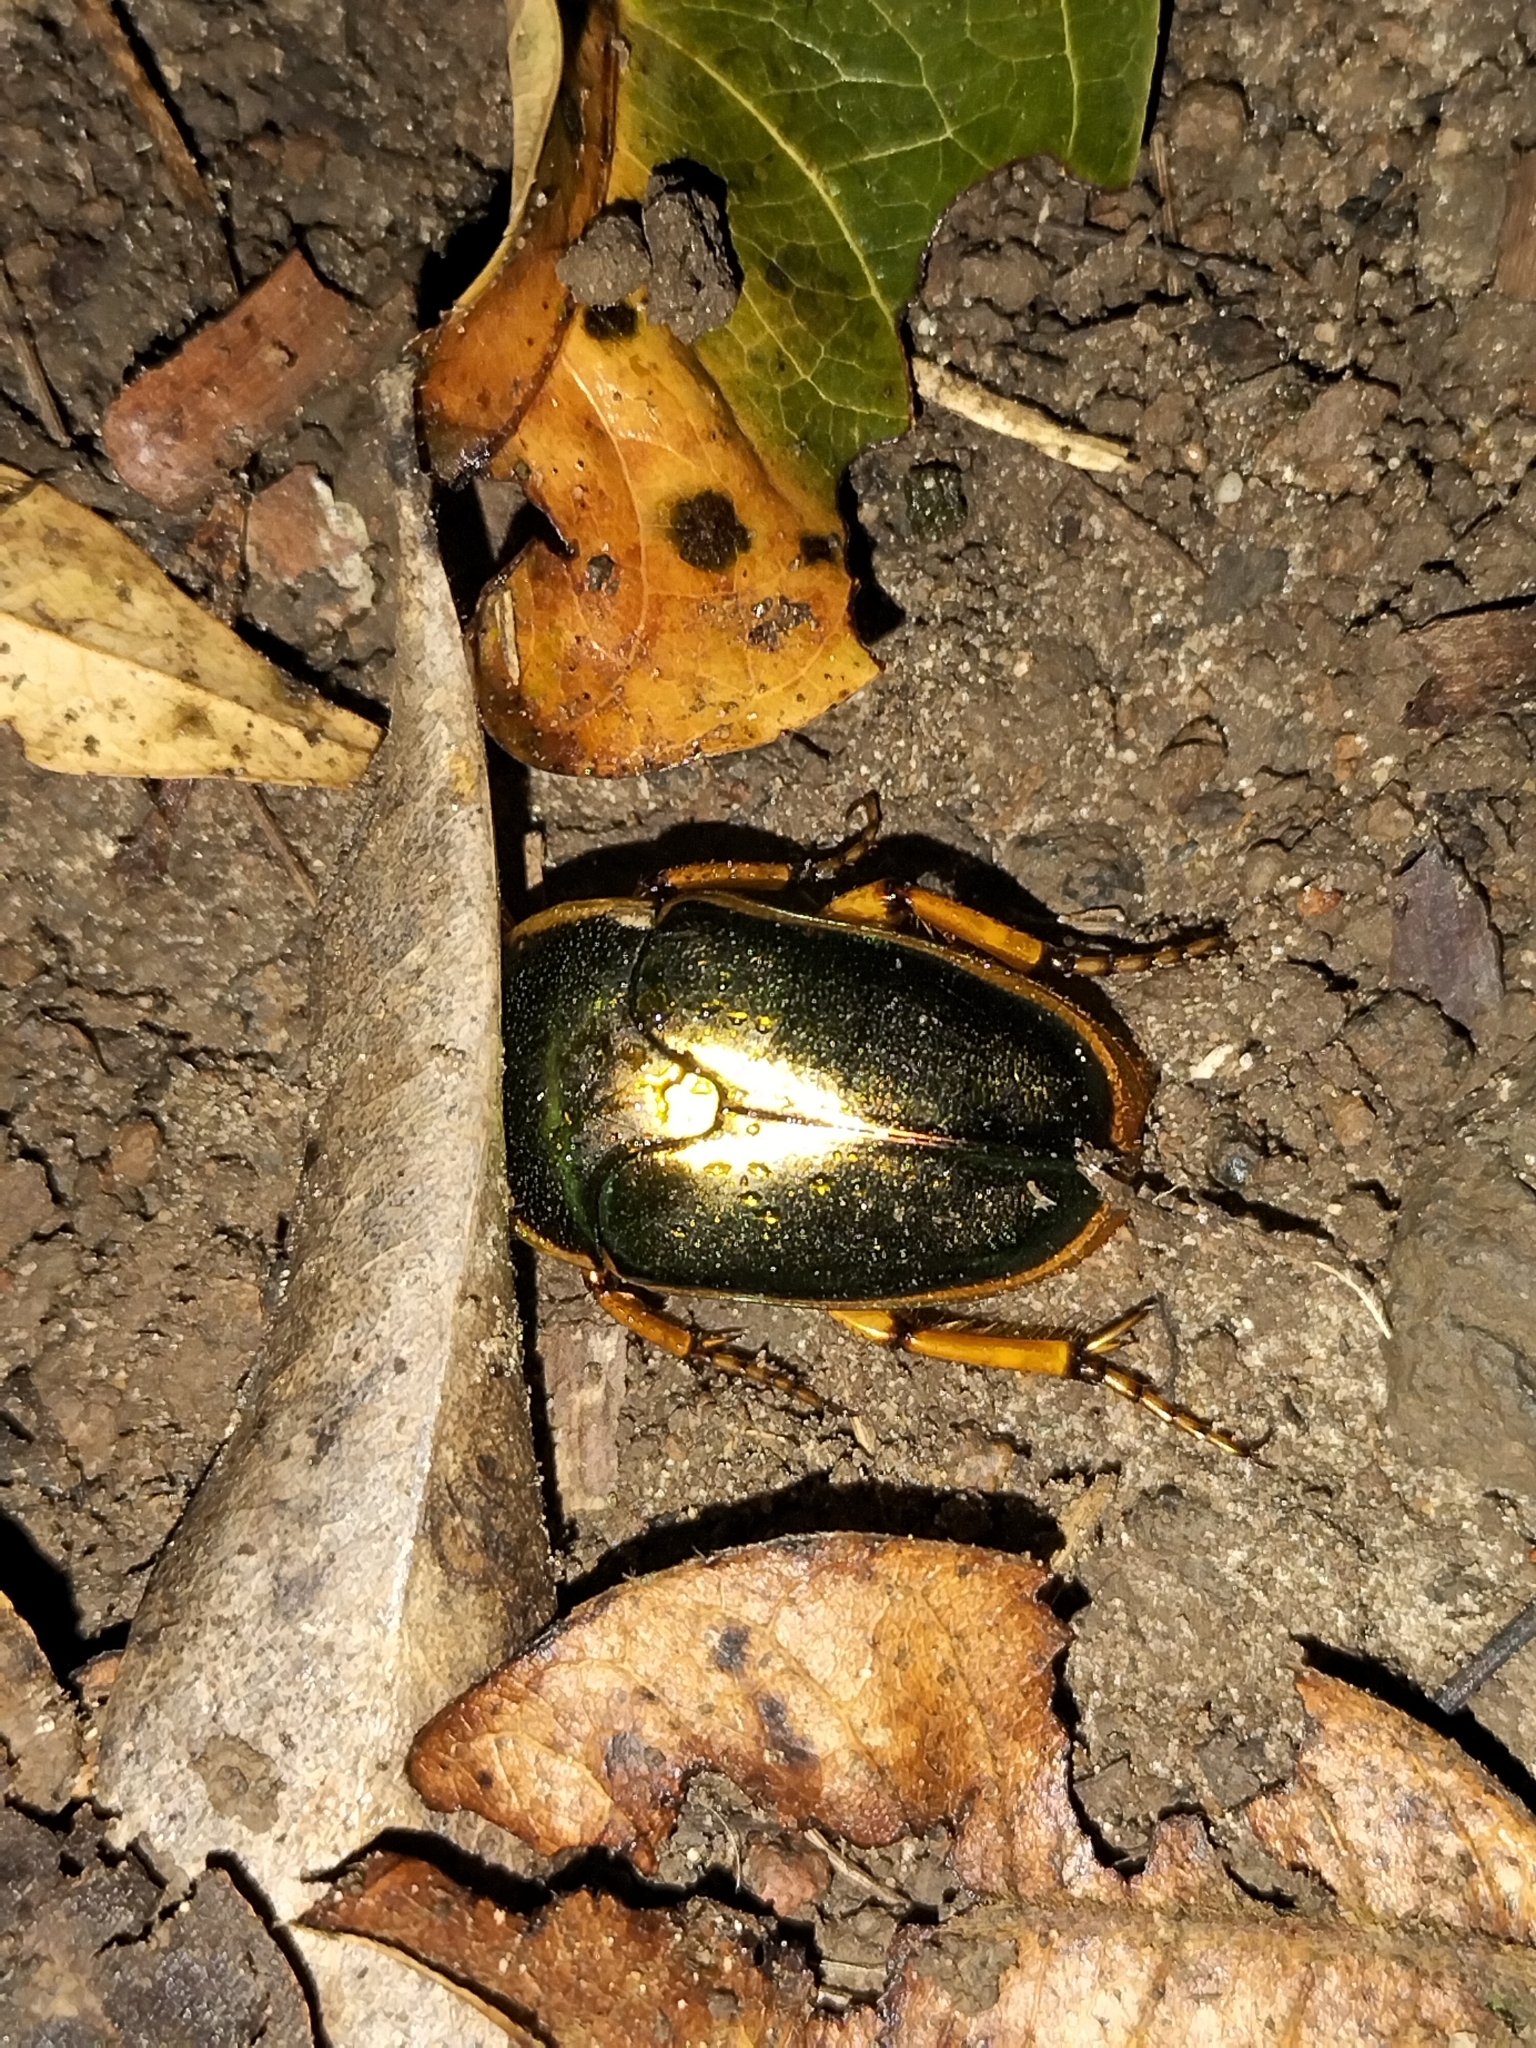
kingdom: Animalia
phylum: Arthropoda
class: Insecta
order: Coleoptera
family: Scarabaeidae
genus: Mycterophallus
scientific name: Mycterophallus duboulayi
